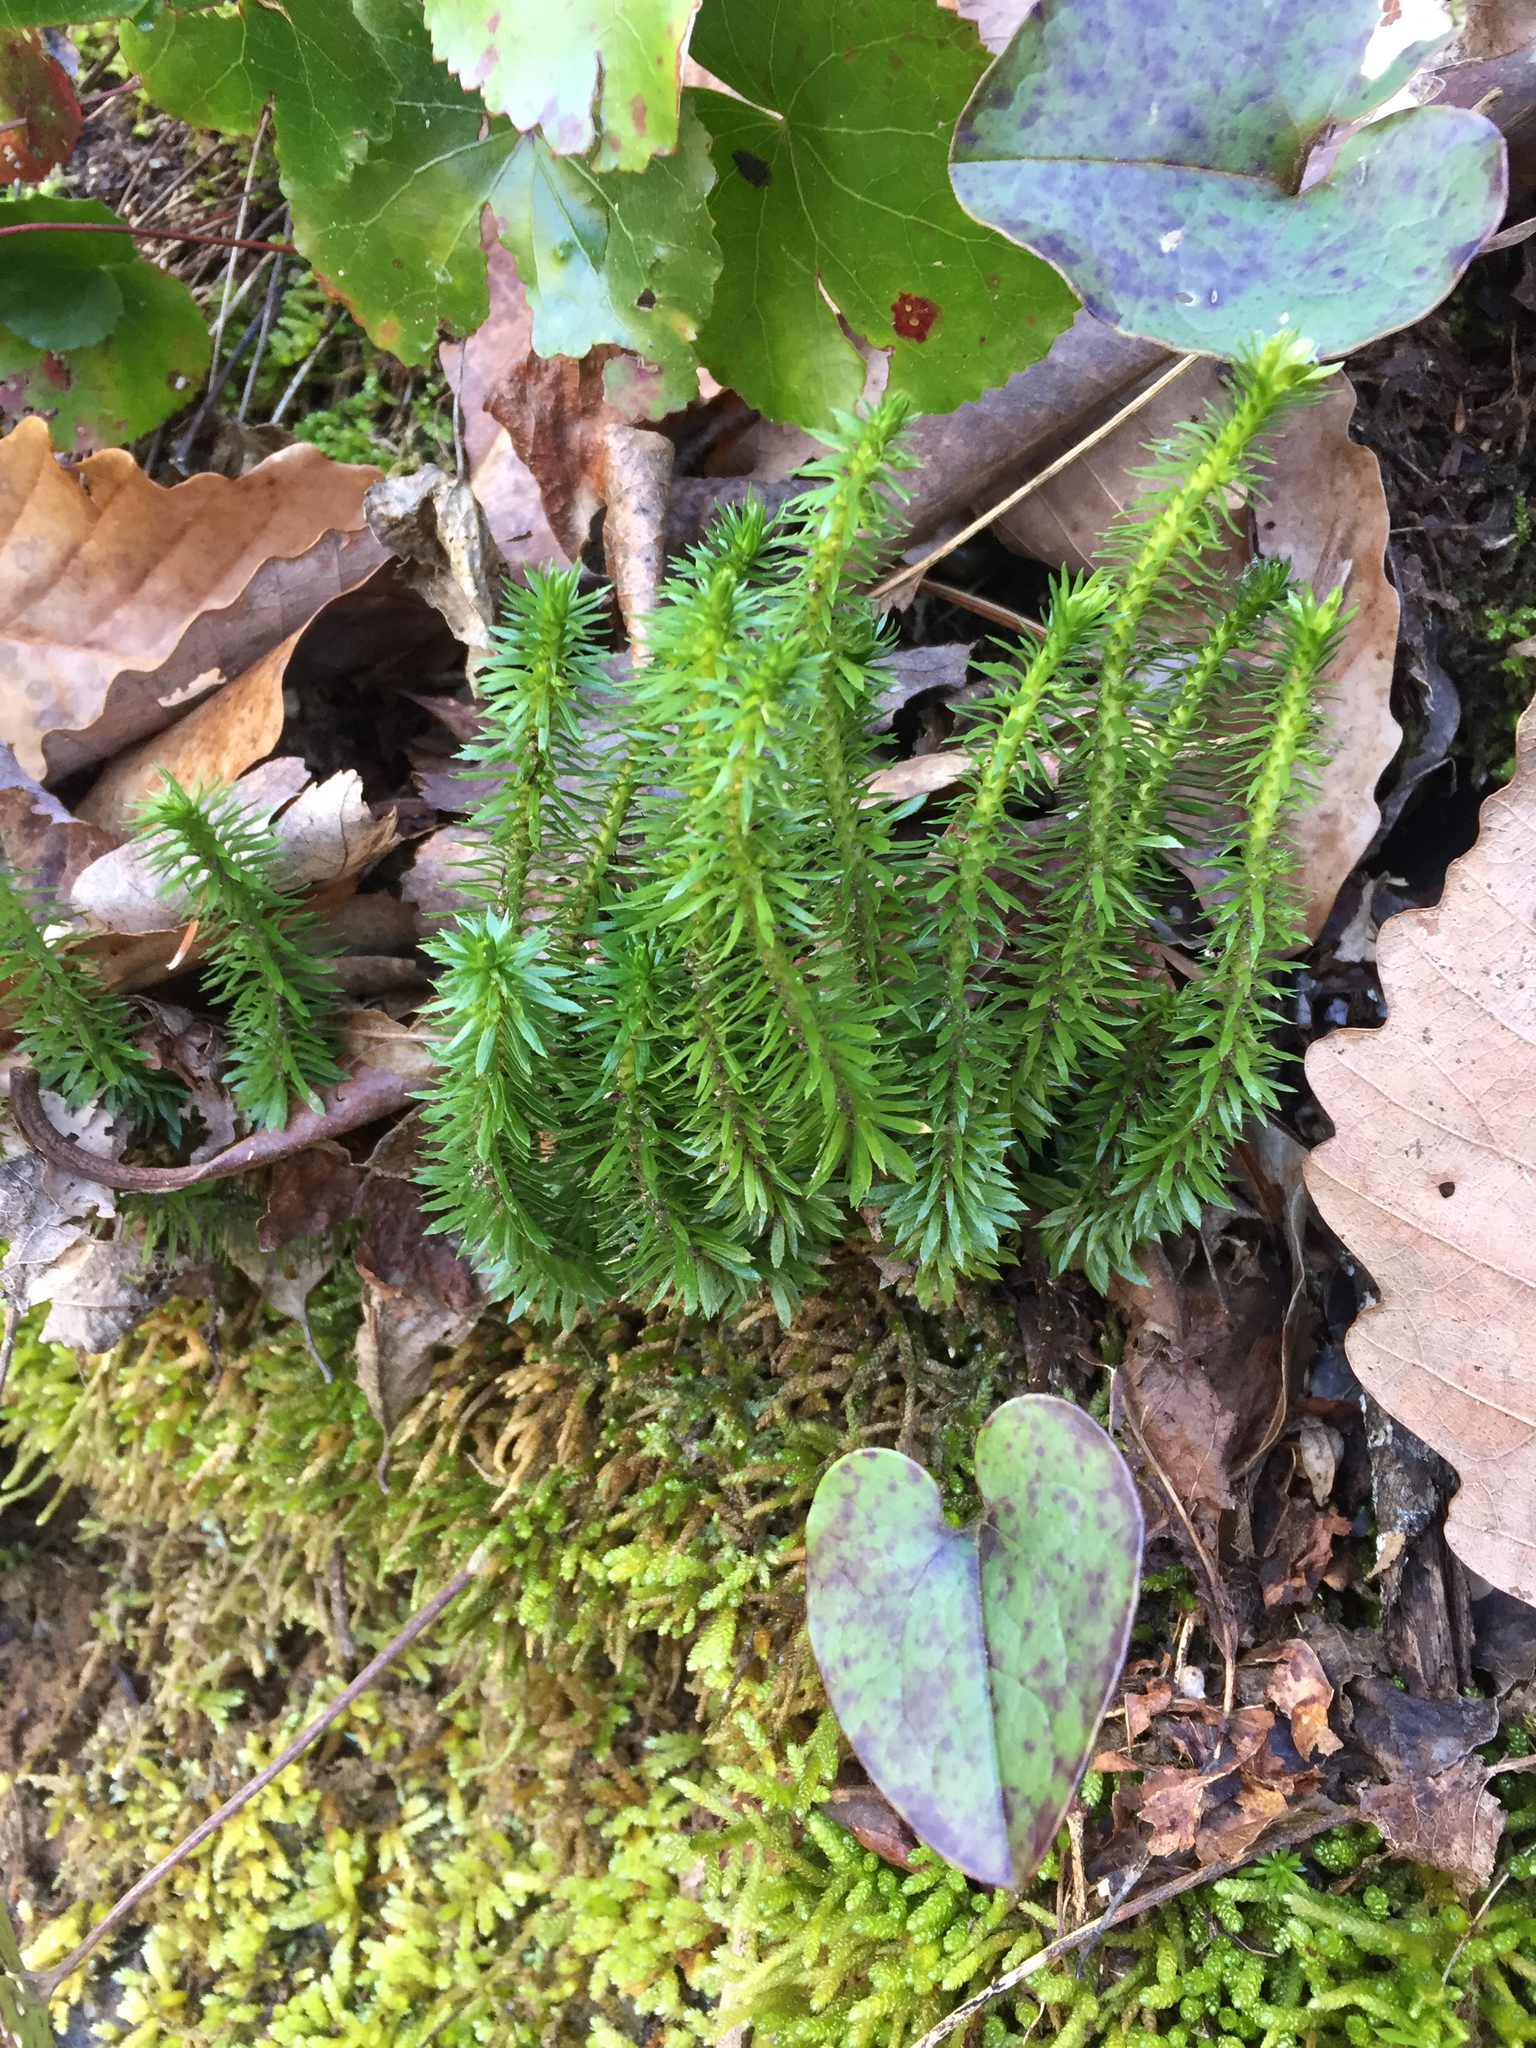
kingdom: Plantae
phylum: Tracheophyta
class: Lycopodiopsida
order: Lycopodiales
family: Lycopodiaceae
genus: Huperzia
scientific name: Huperzia lucidula
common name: Shining clubmoss
